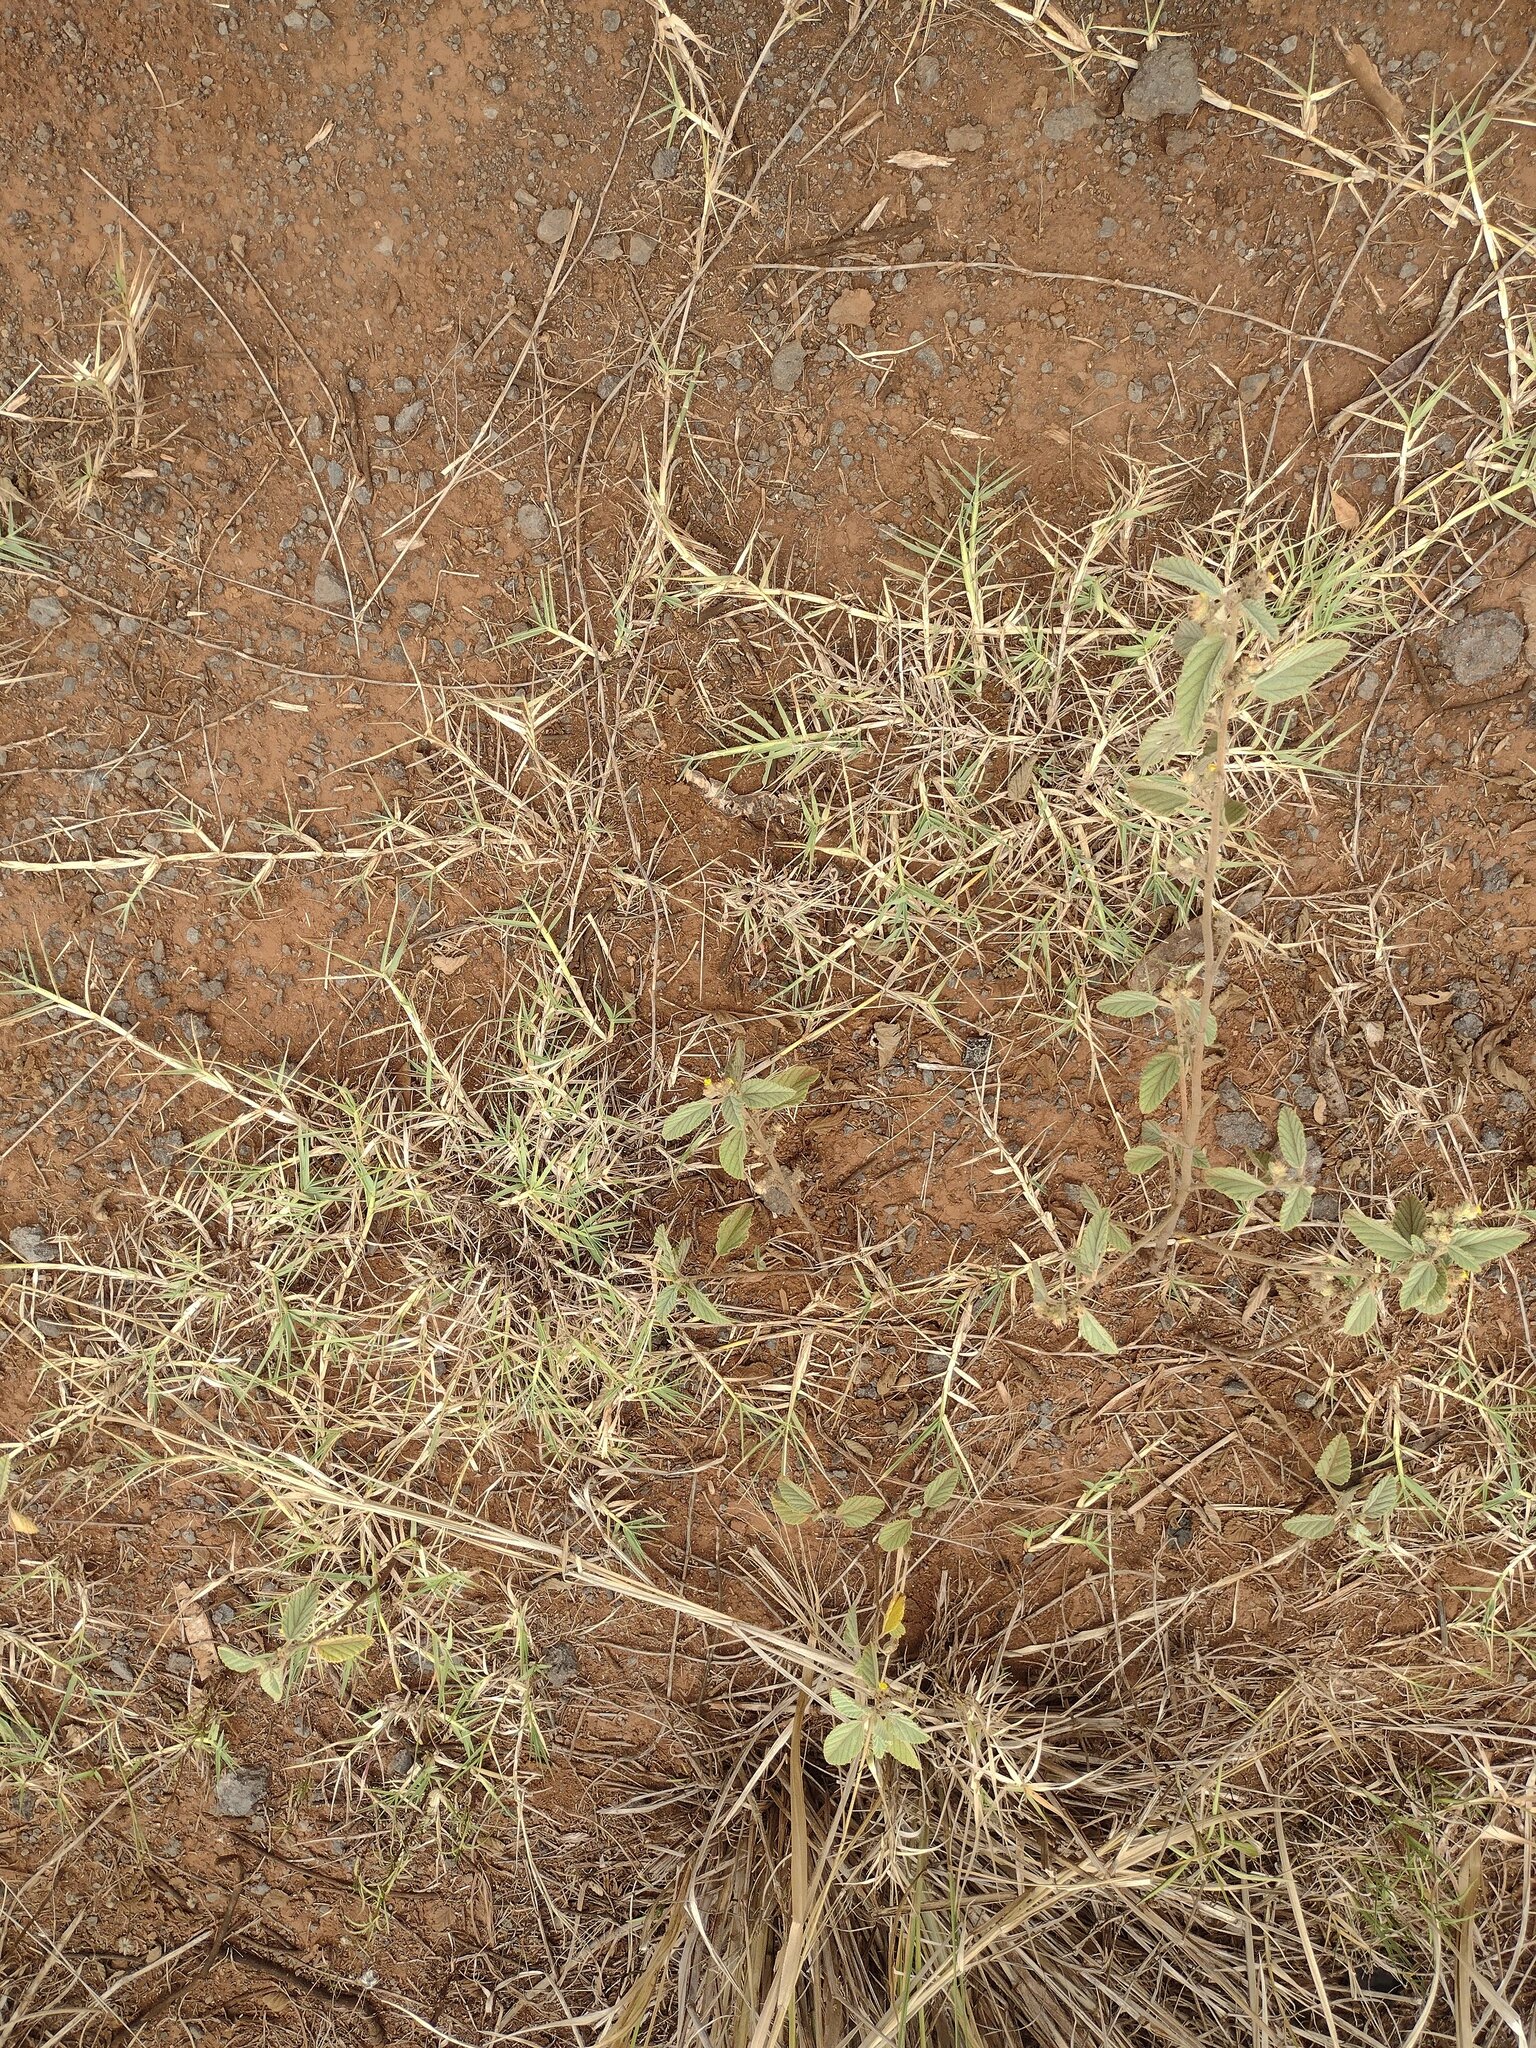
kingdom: Plantae
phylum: Tracheophyta
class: Liliopsida
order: Poales
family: Poaceae
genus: Cynodon
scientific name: Cynodon dactylon
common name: Bermuda grass
